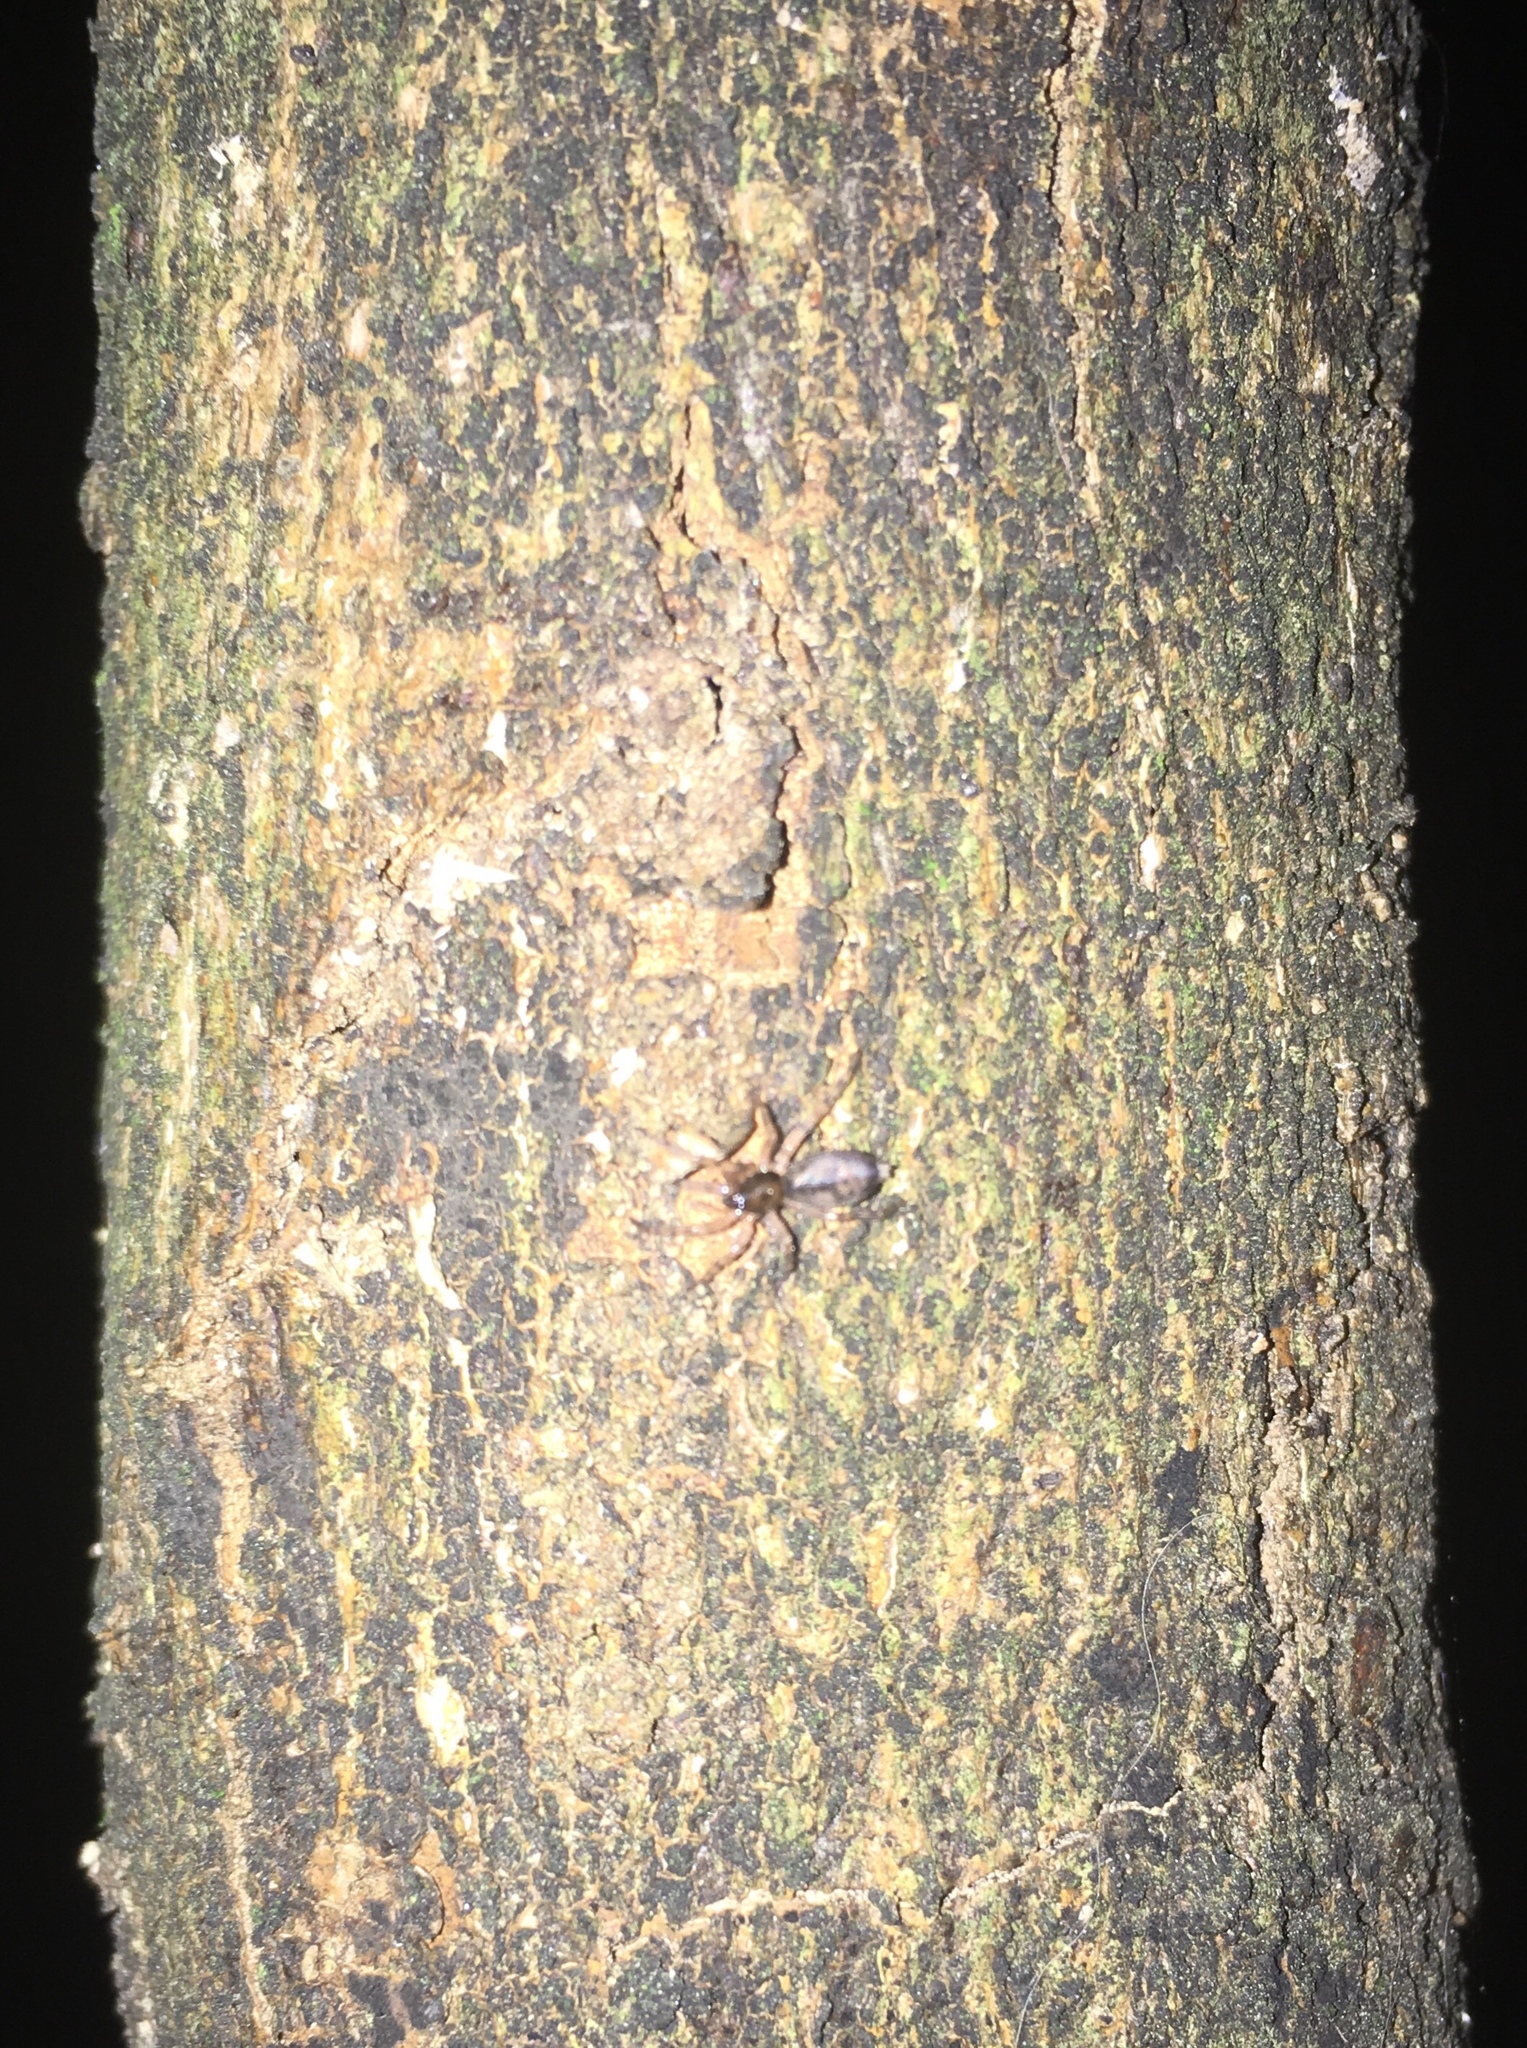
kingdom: Animalia
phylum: Arthropoda
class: Arachnida
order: Araneae
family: Gnaphosidae
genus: Intruda
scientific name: Intruda signata
